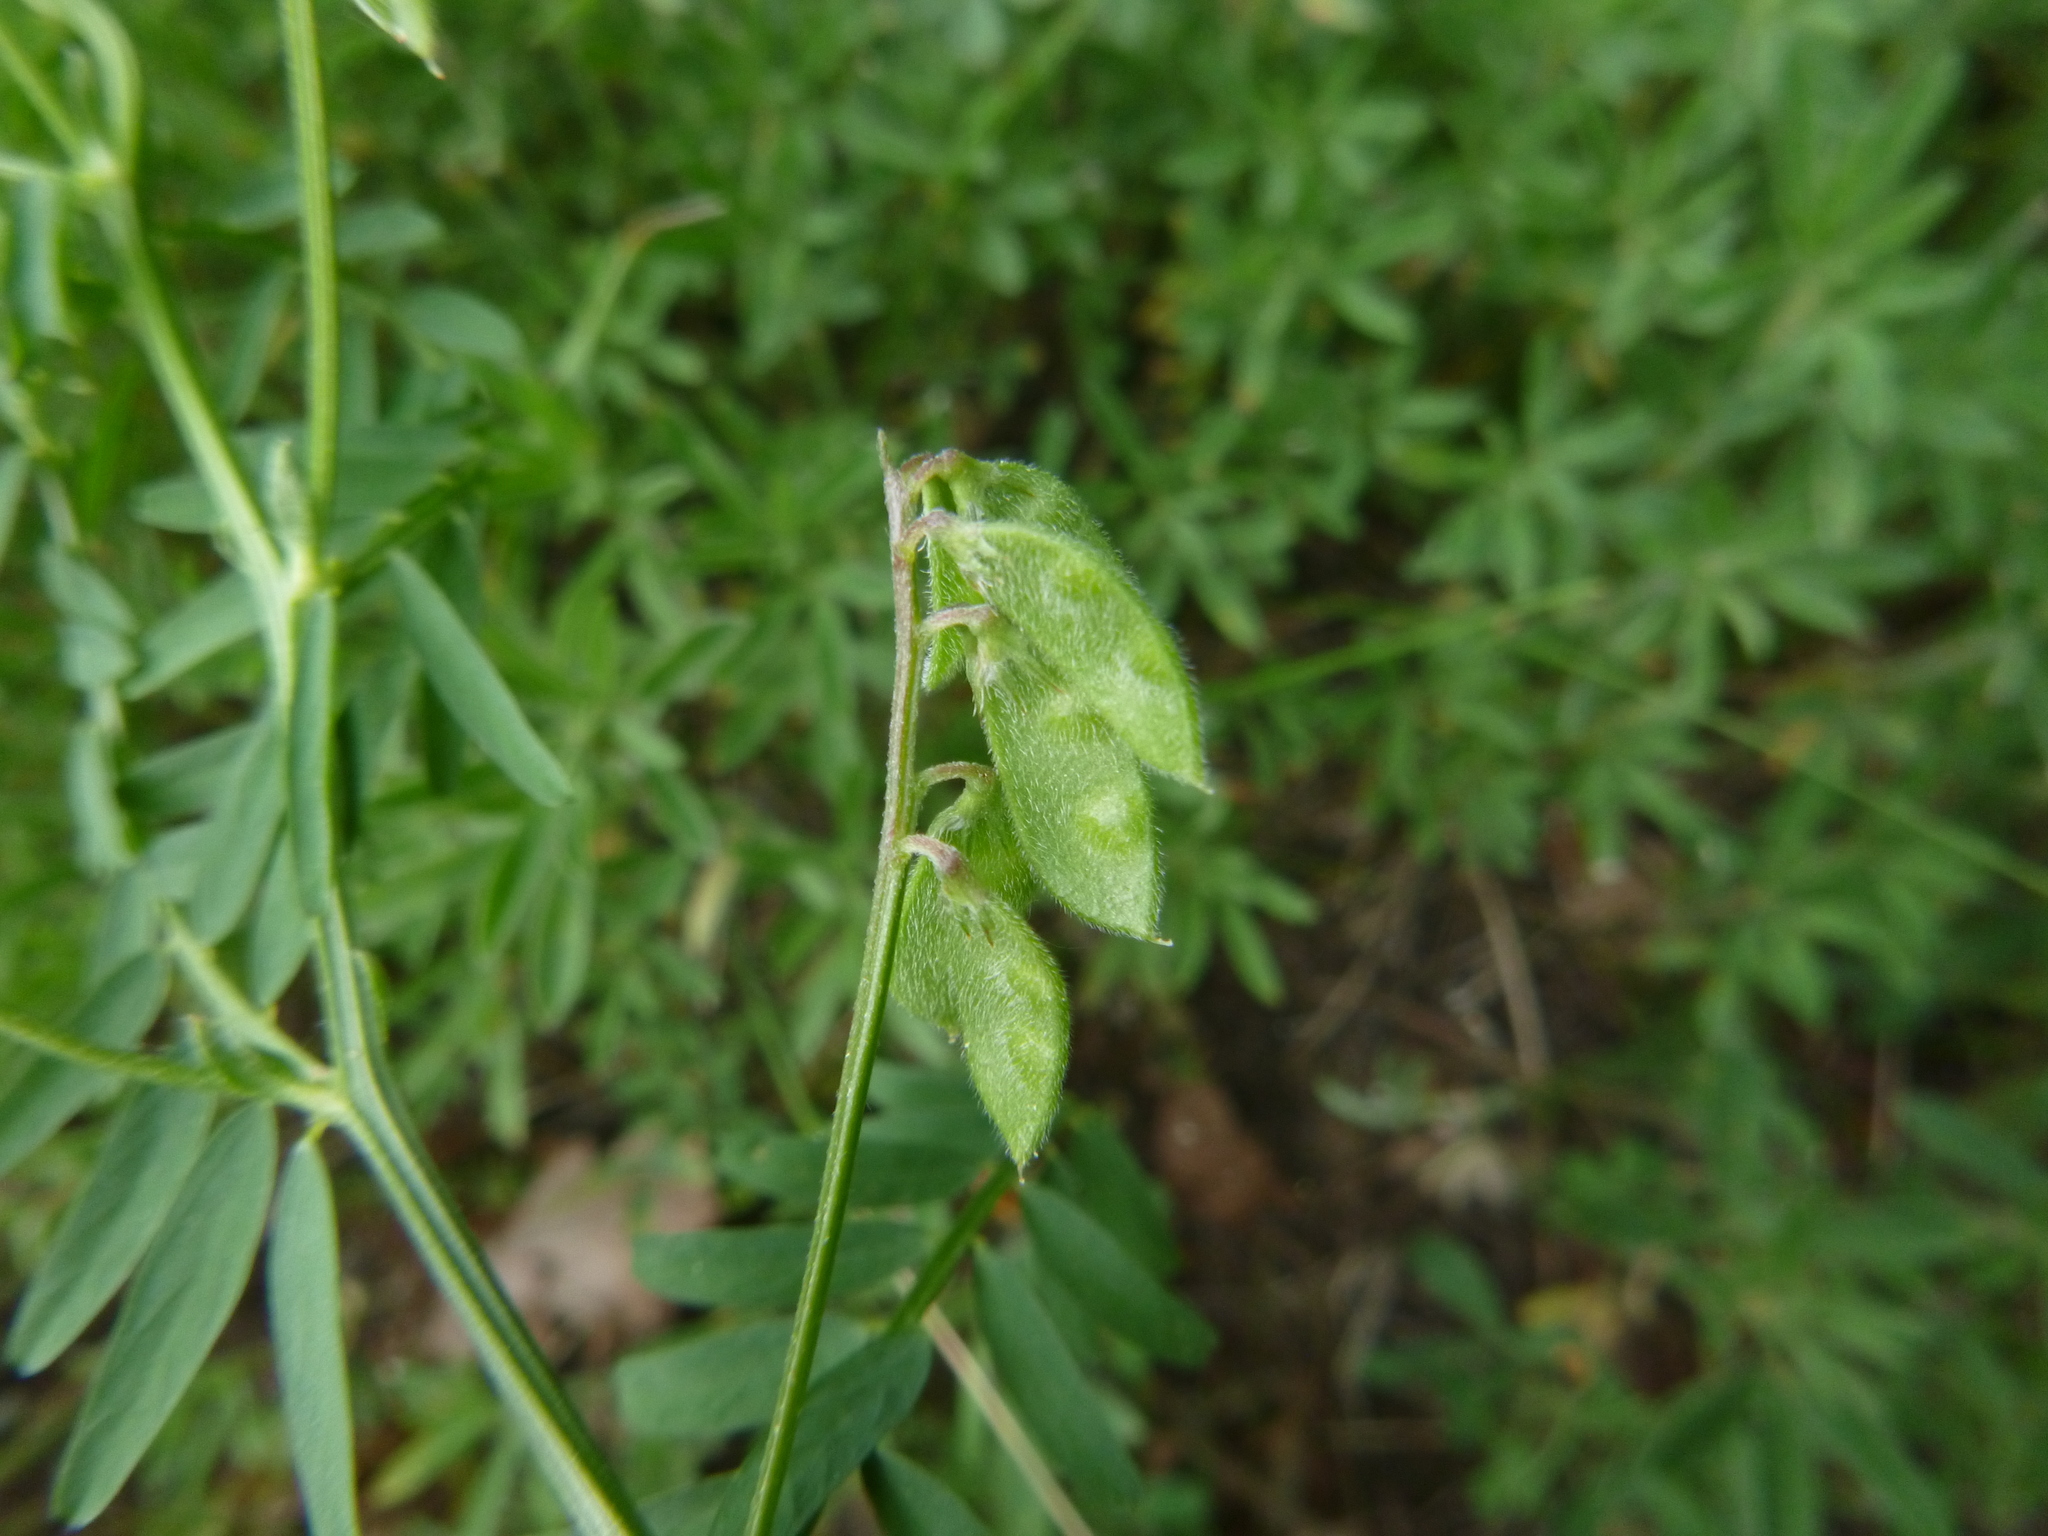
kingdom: Plantae
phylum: Tracheophyta
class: Magnoliopsida
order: Fabales
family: Fabaceae
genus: Vicia
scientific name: Vicia hirsuta
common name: Tiny vetch
